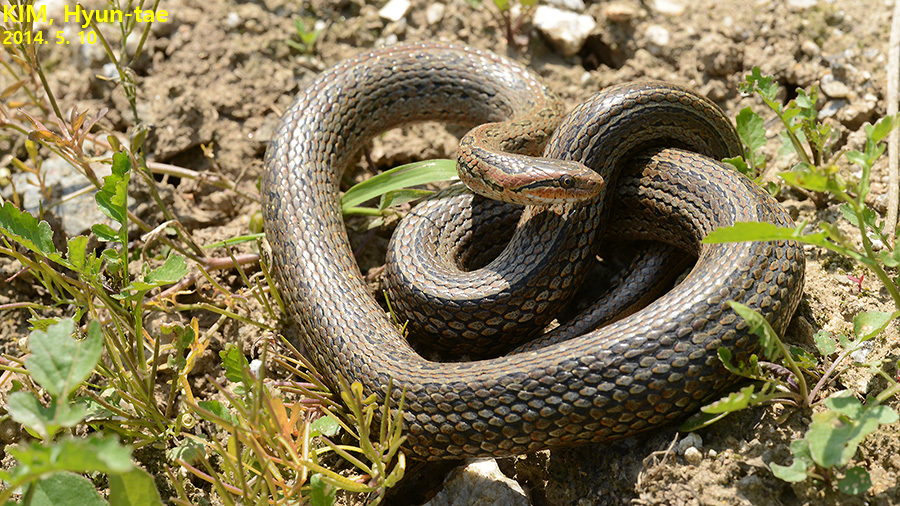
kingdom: Animalia
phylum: Chordata
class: Squamata
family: Colubridae
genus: Oocatochus
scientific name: Oocatochus rufodorsatus
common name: Frog-eating rat snake
